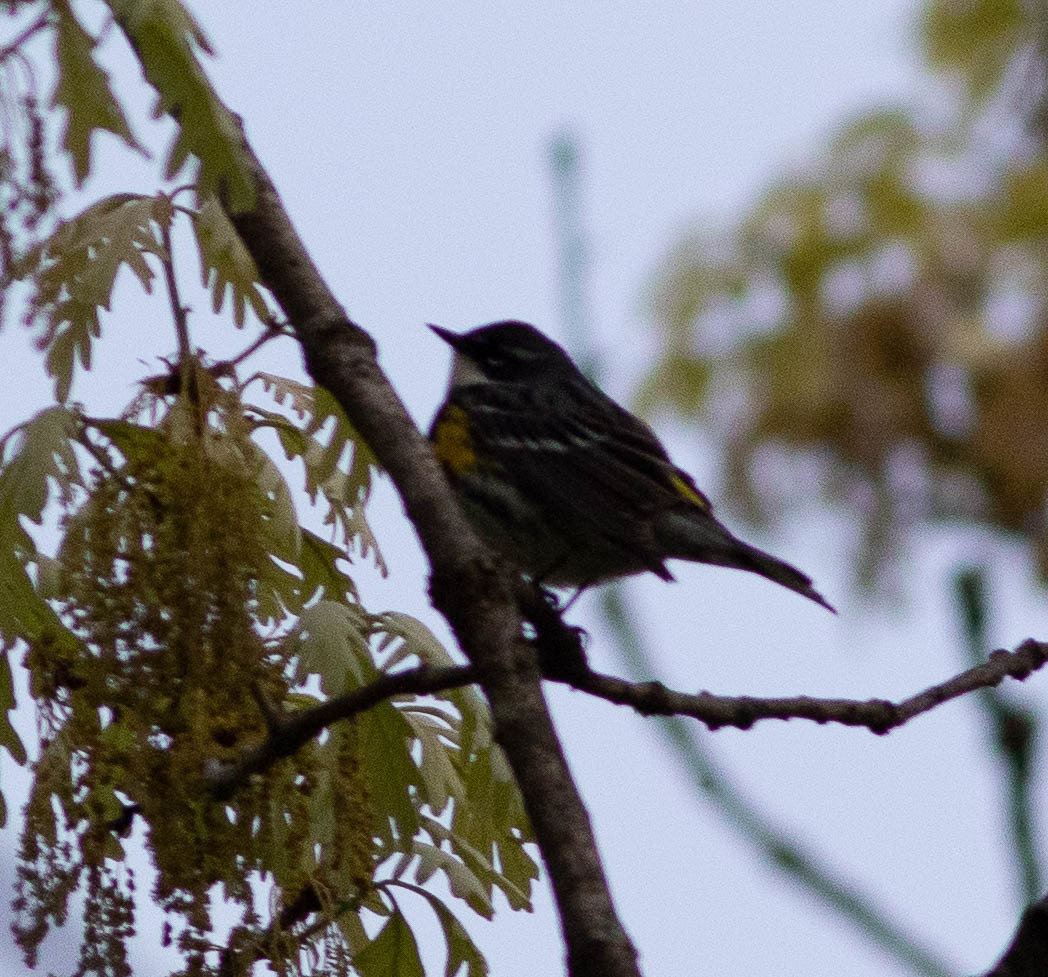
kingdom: Animalia
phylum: Chordata
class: Aves
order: Passeriformes
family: Parulidae
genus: Setophaga
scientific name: Setophaga coronata
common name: Myrtle warbler
